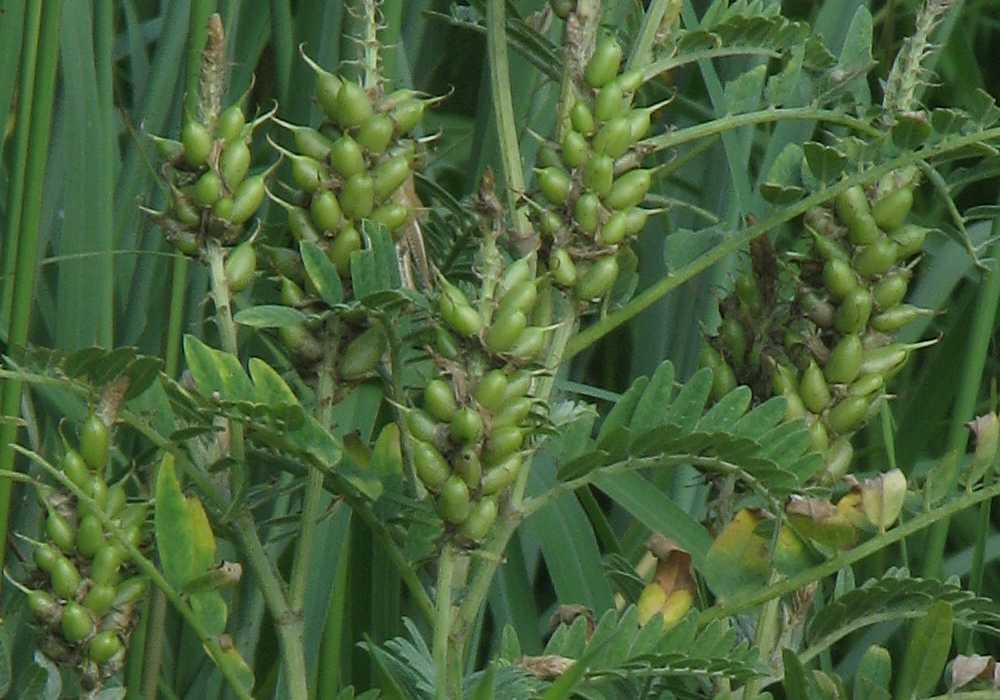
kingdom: Plantae
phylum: Tracheophyta
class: Magnoliopsida
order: Fabales
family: Fabaceae
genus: Astragalus
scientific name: Astragalus canadensis
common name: Canada milk-vetch
